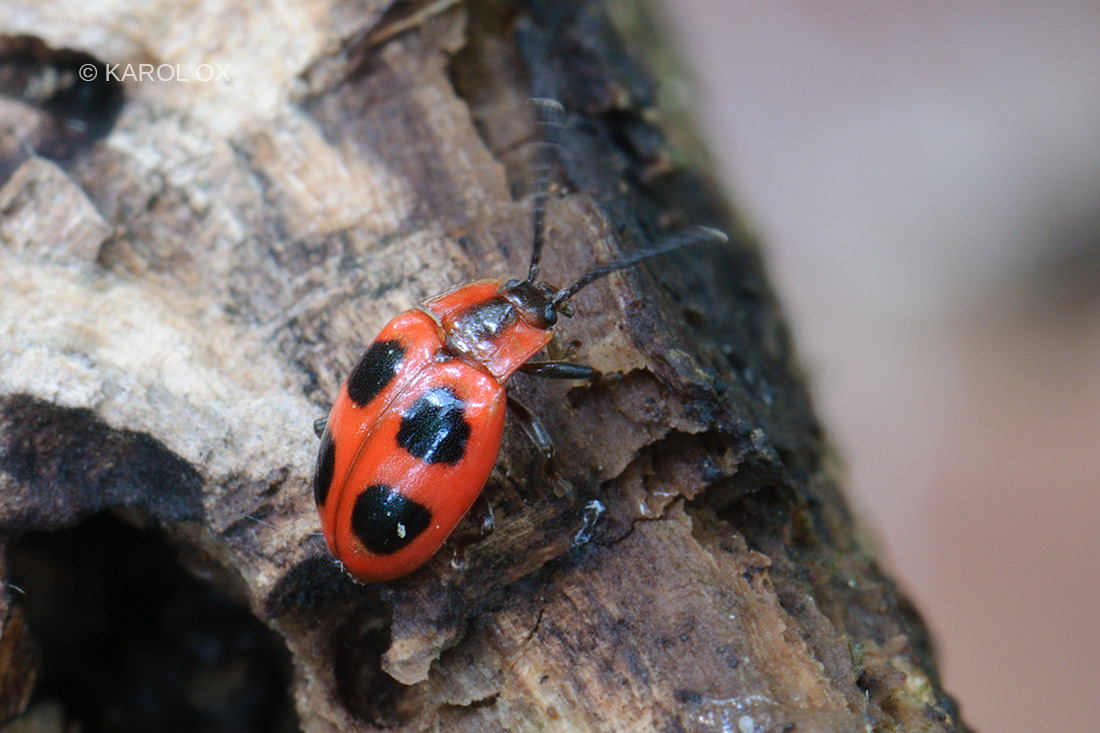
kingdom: Animalia
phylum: Arthropoda
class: Insecta
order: Coleoptera
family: Endomychidae
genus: Endomychus
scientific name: Endomychus coccineus
